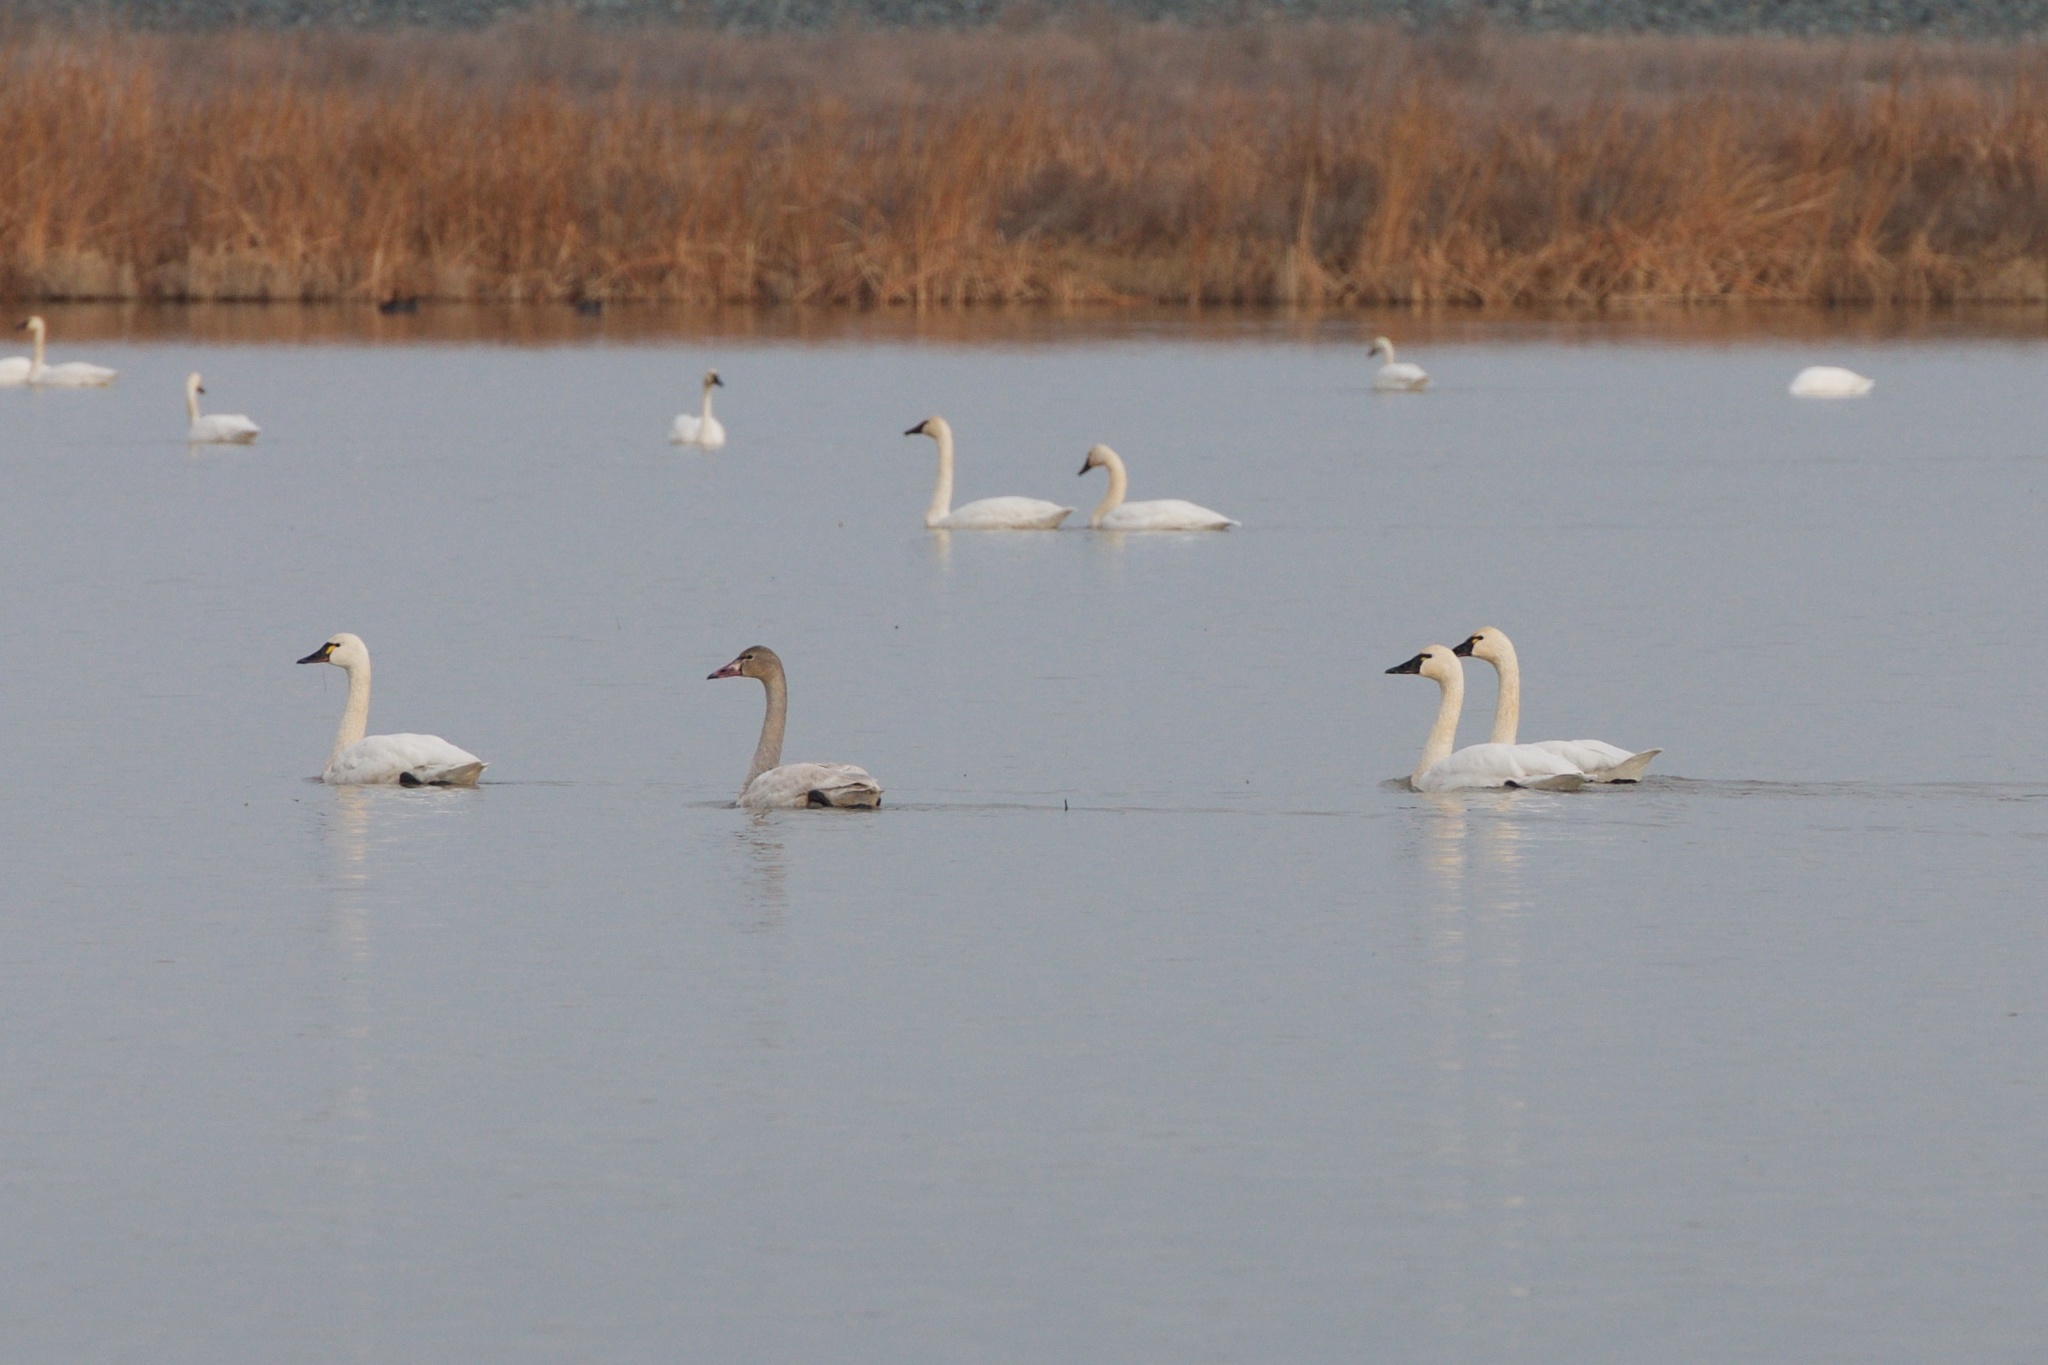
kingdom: Animalia
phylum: Chordata
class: Aves
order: Anseriformes
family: Anatidae
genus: Cygnus
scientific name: Cygnus columbianus
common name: Tundra swan
